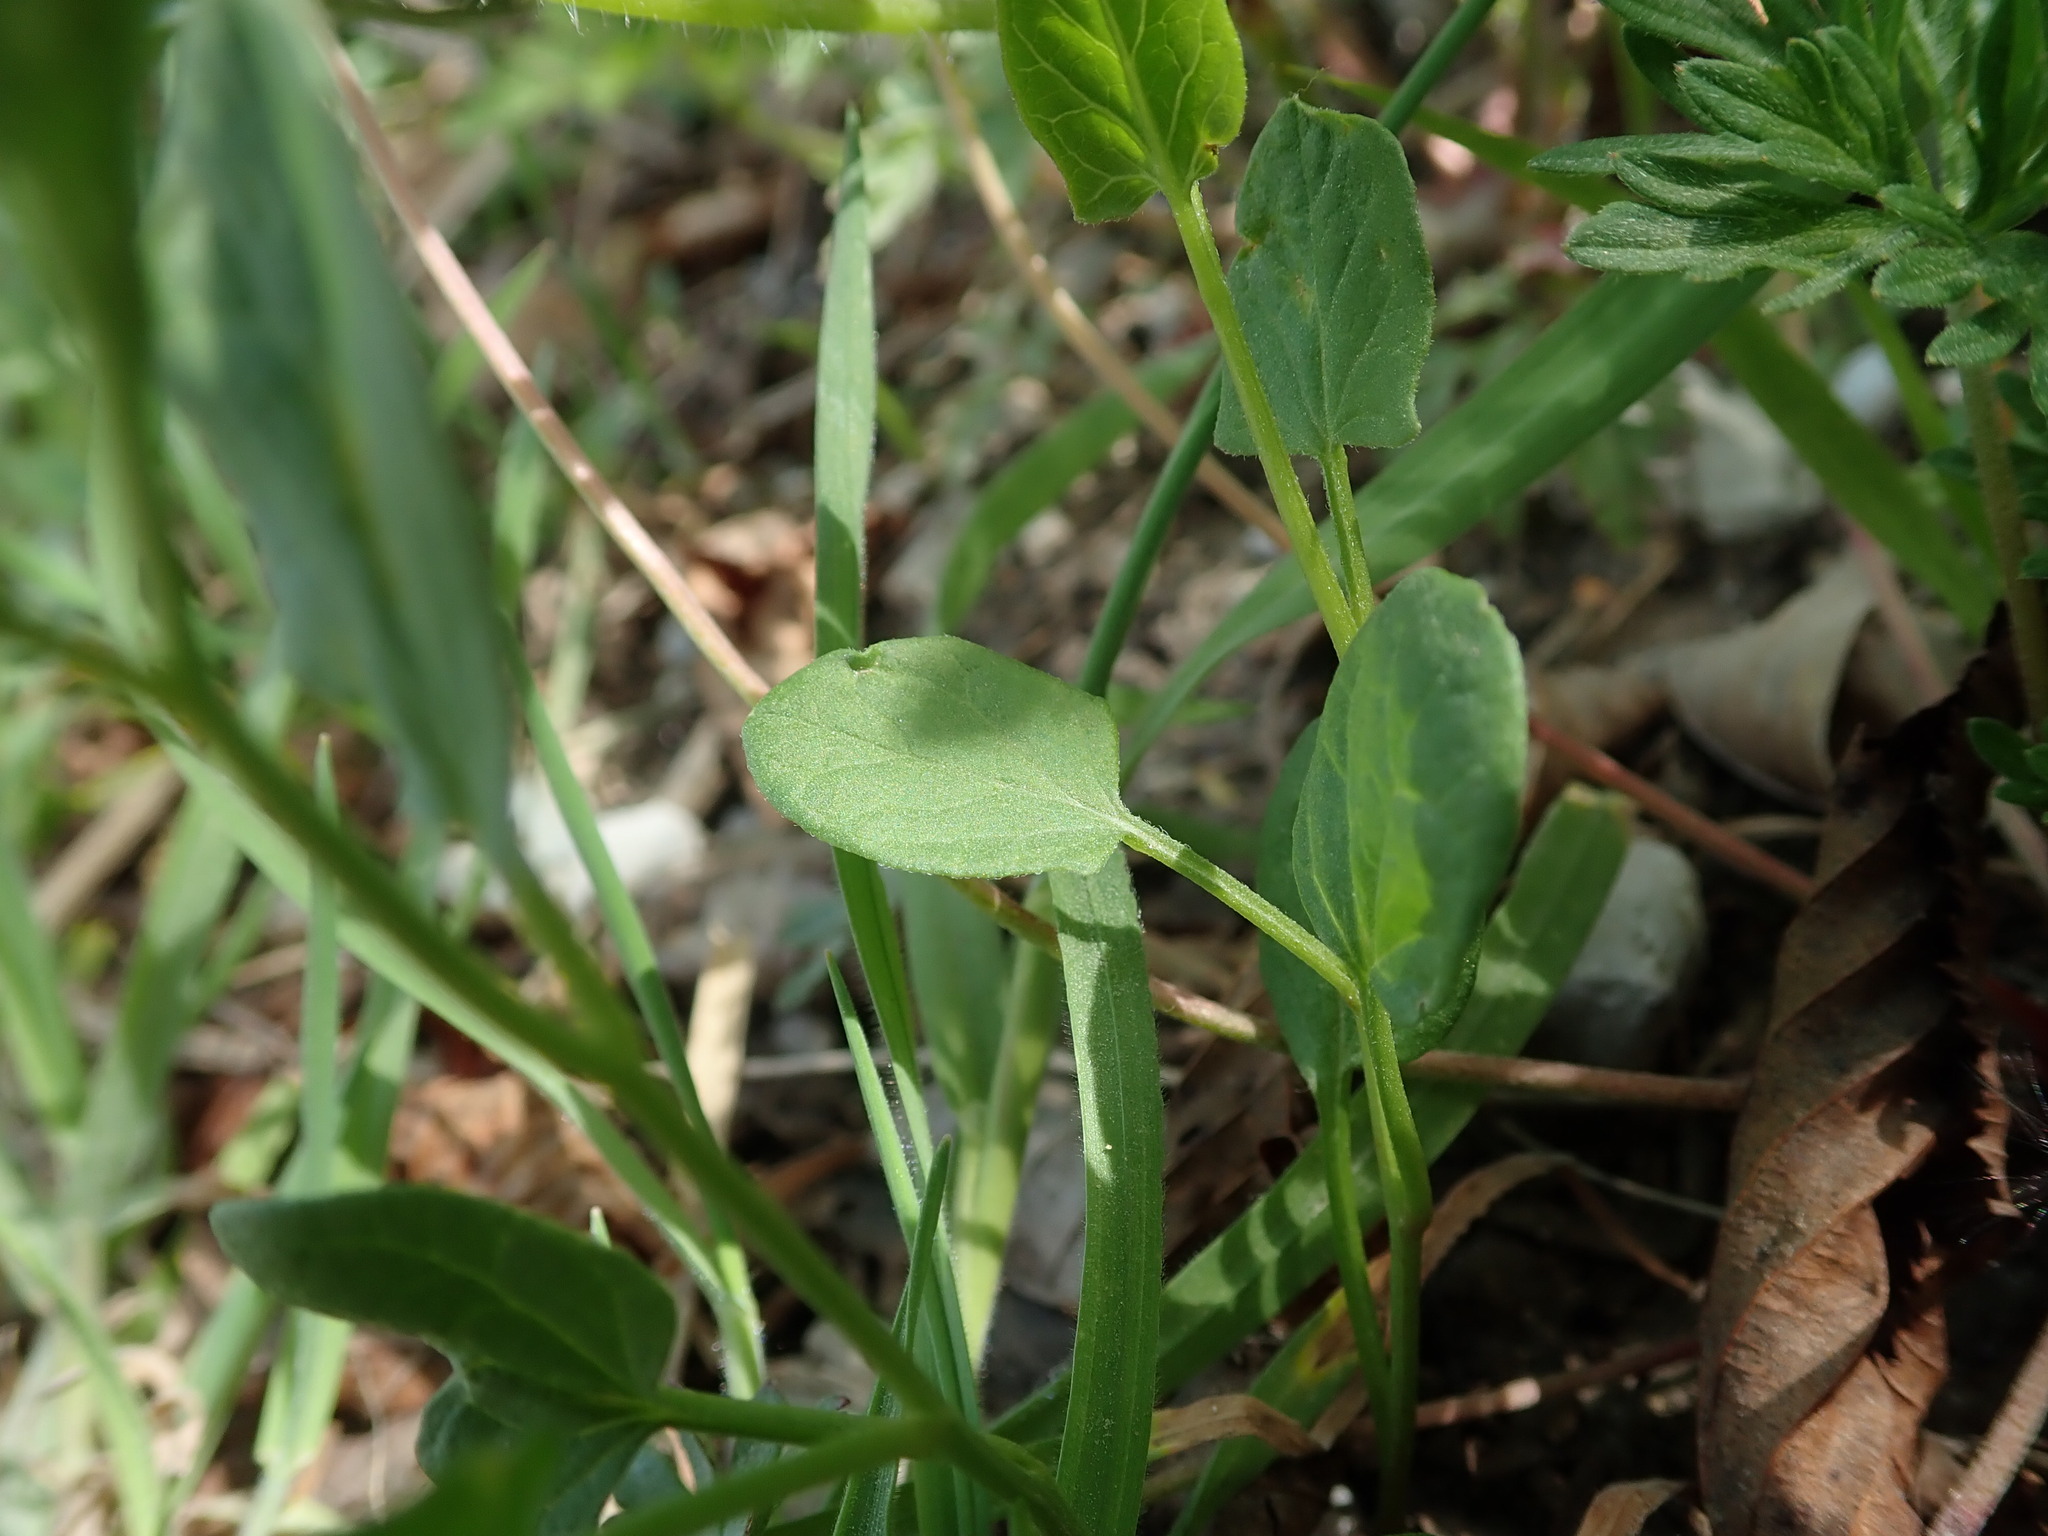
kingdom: Plantae
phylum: Tracheophyta
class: Magnoliopsida
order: Solanales
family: Convolvulaceae
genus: Convolvulus
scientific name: Convolvulus arvensis
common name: Field bindweed
